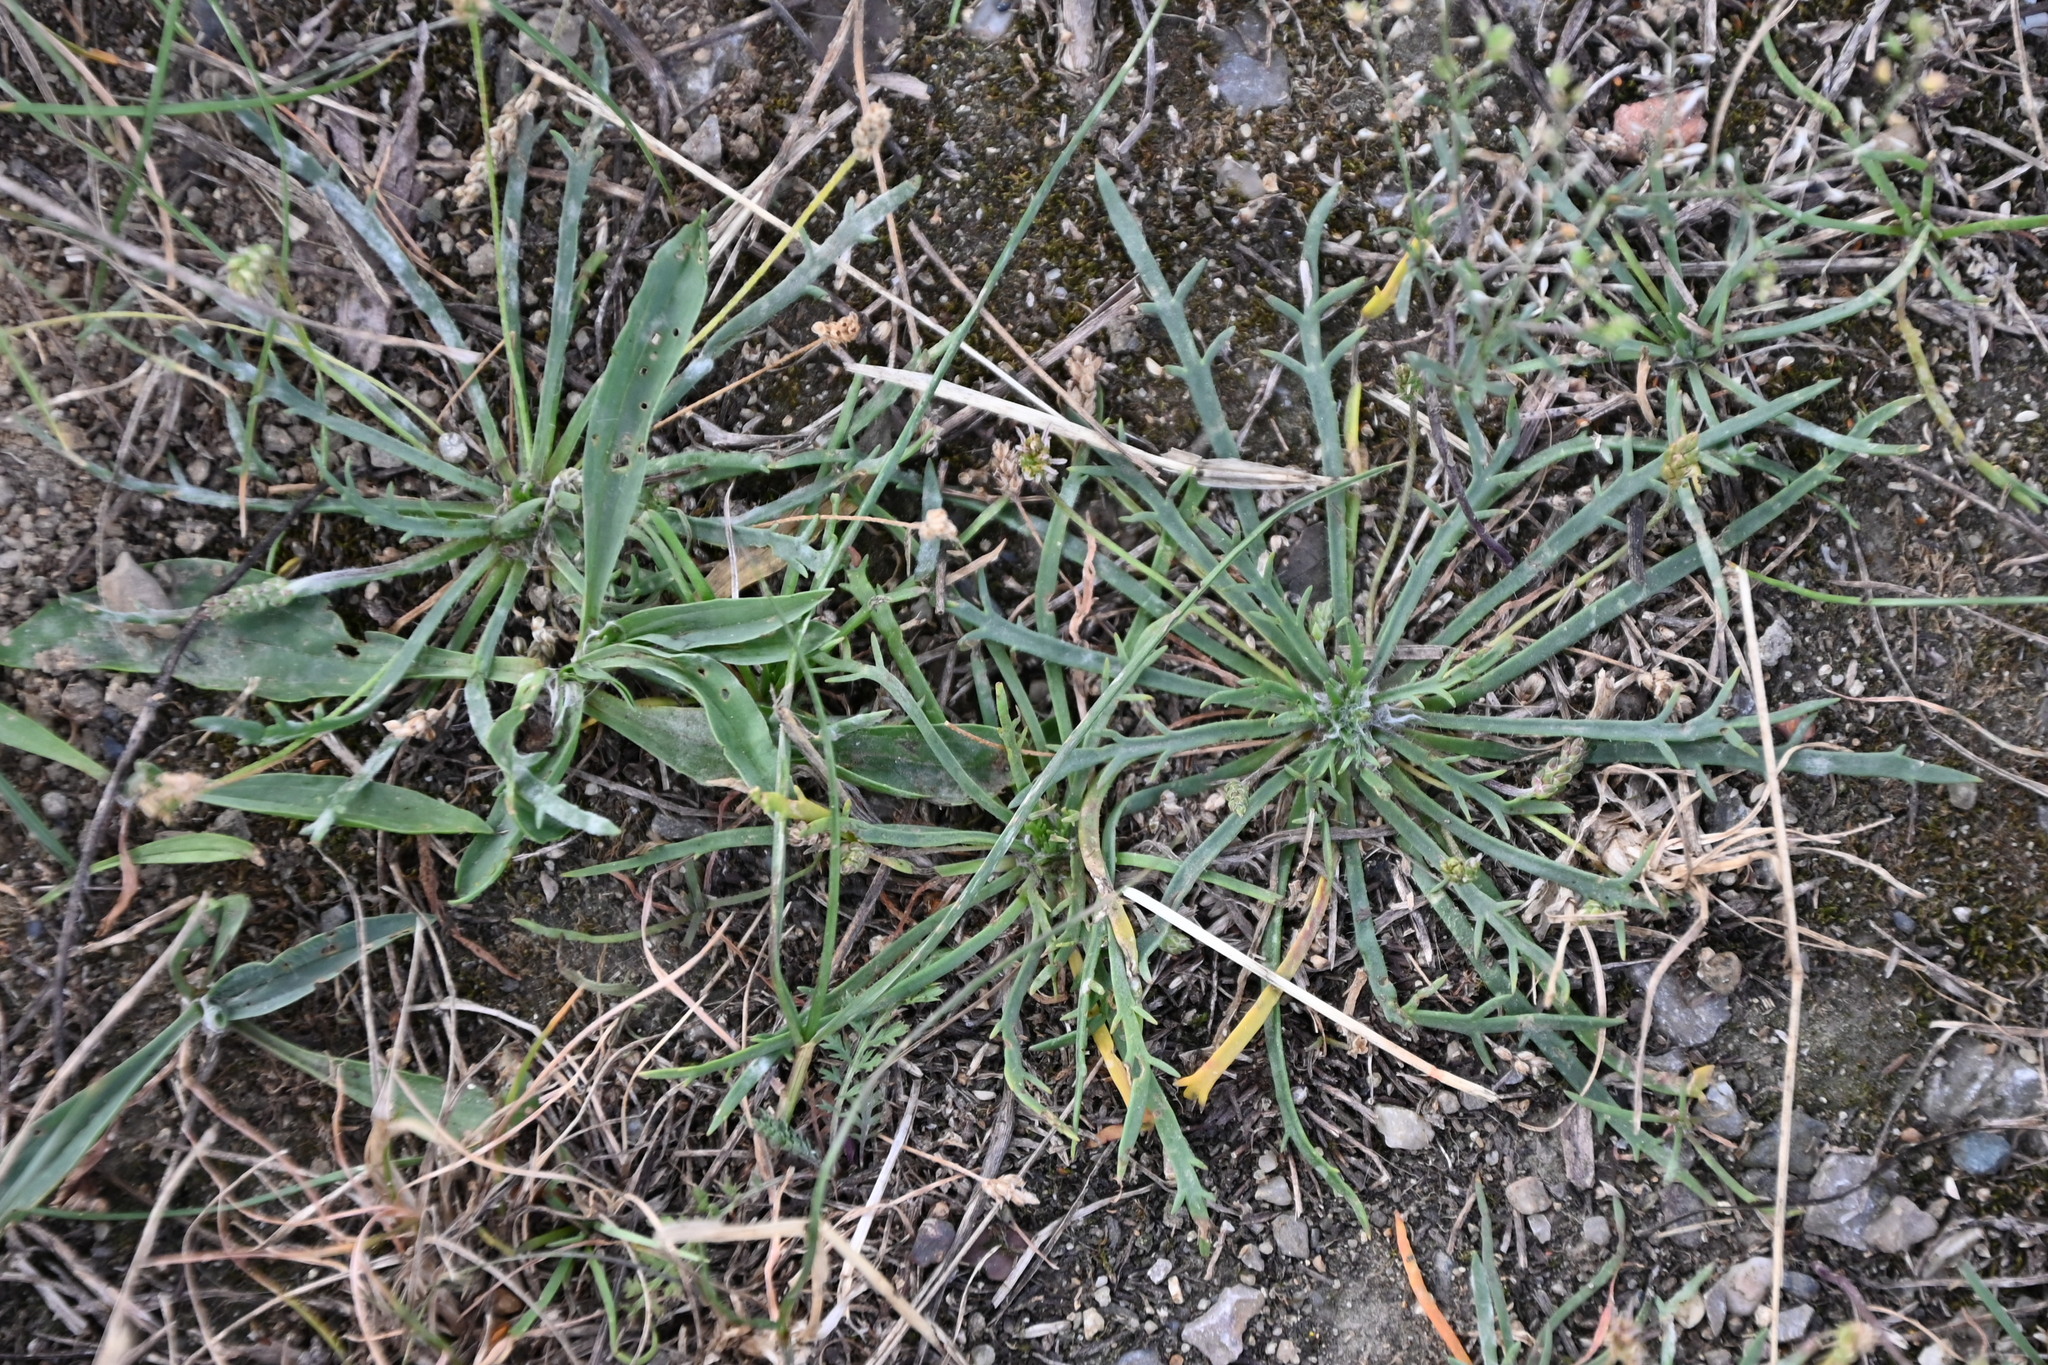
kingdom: Plantae
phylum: Tracheophyta
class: Magnoliopsida
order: Lamiales
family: Plantaginaceae
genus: Plantago
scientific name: Plantago coronopus
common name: Buck's-horn plantain
